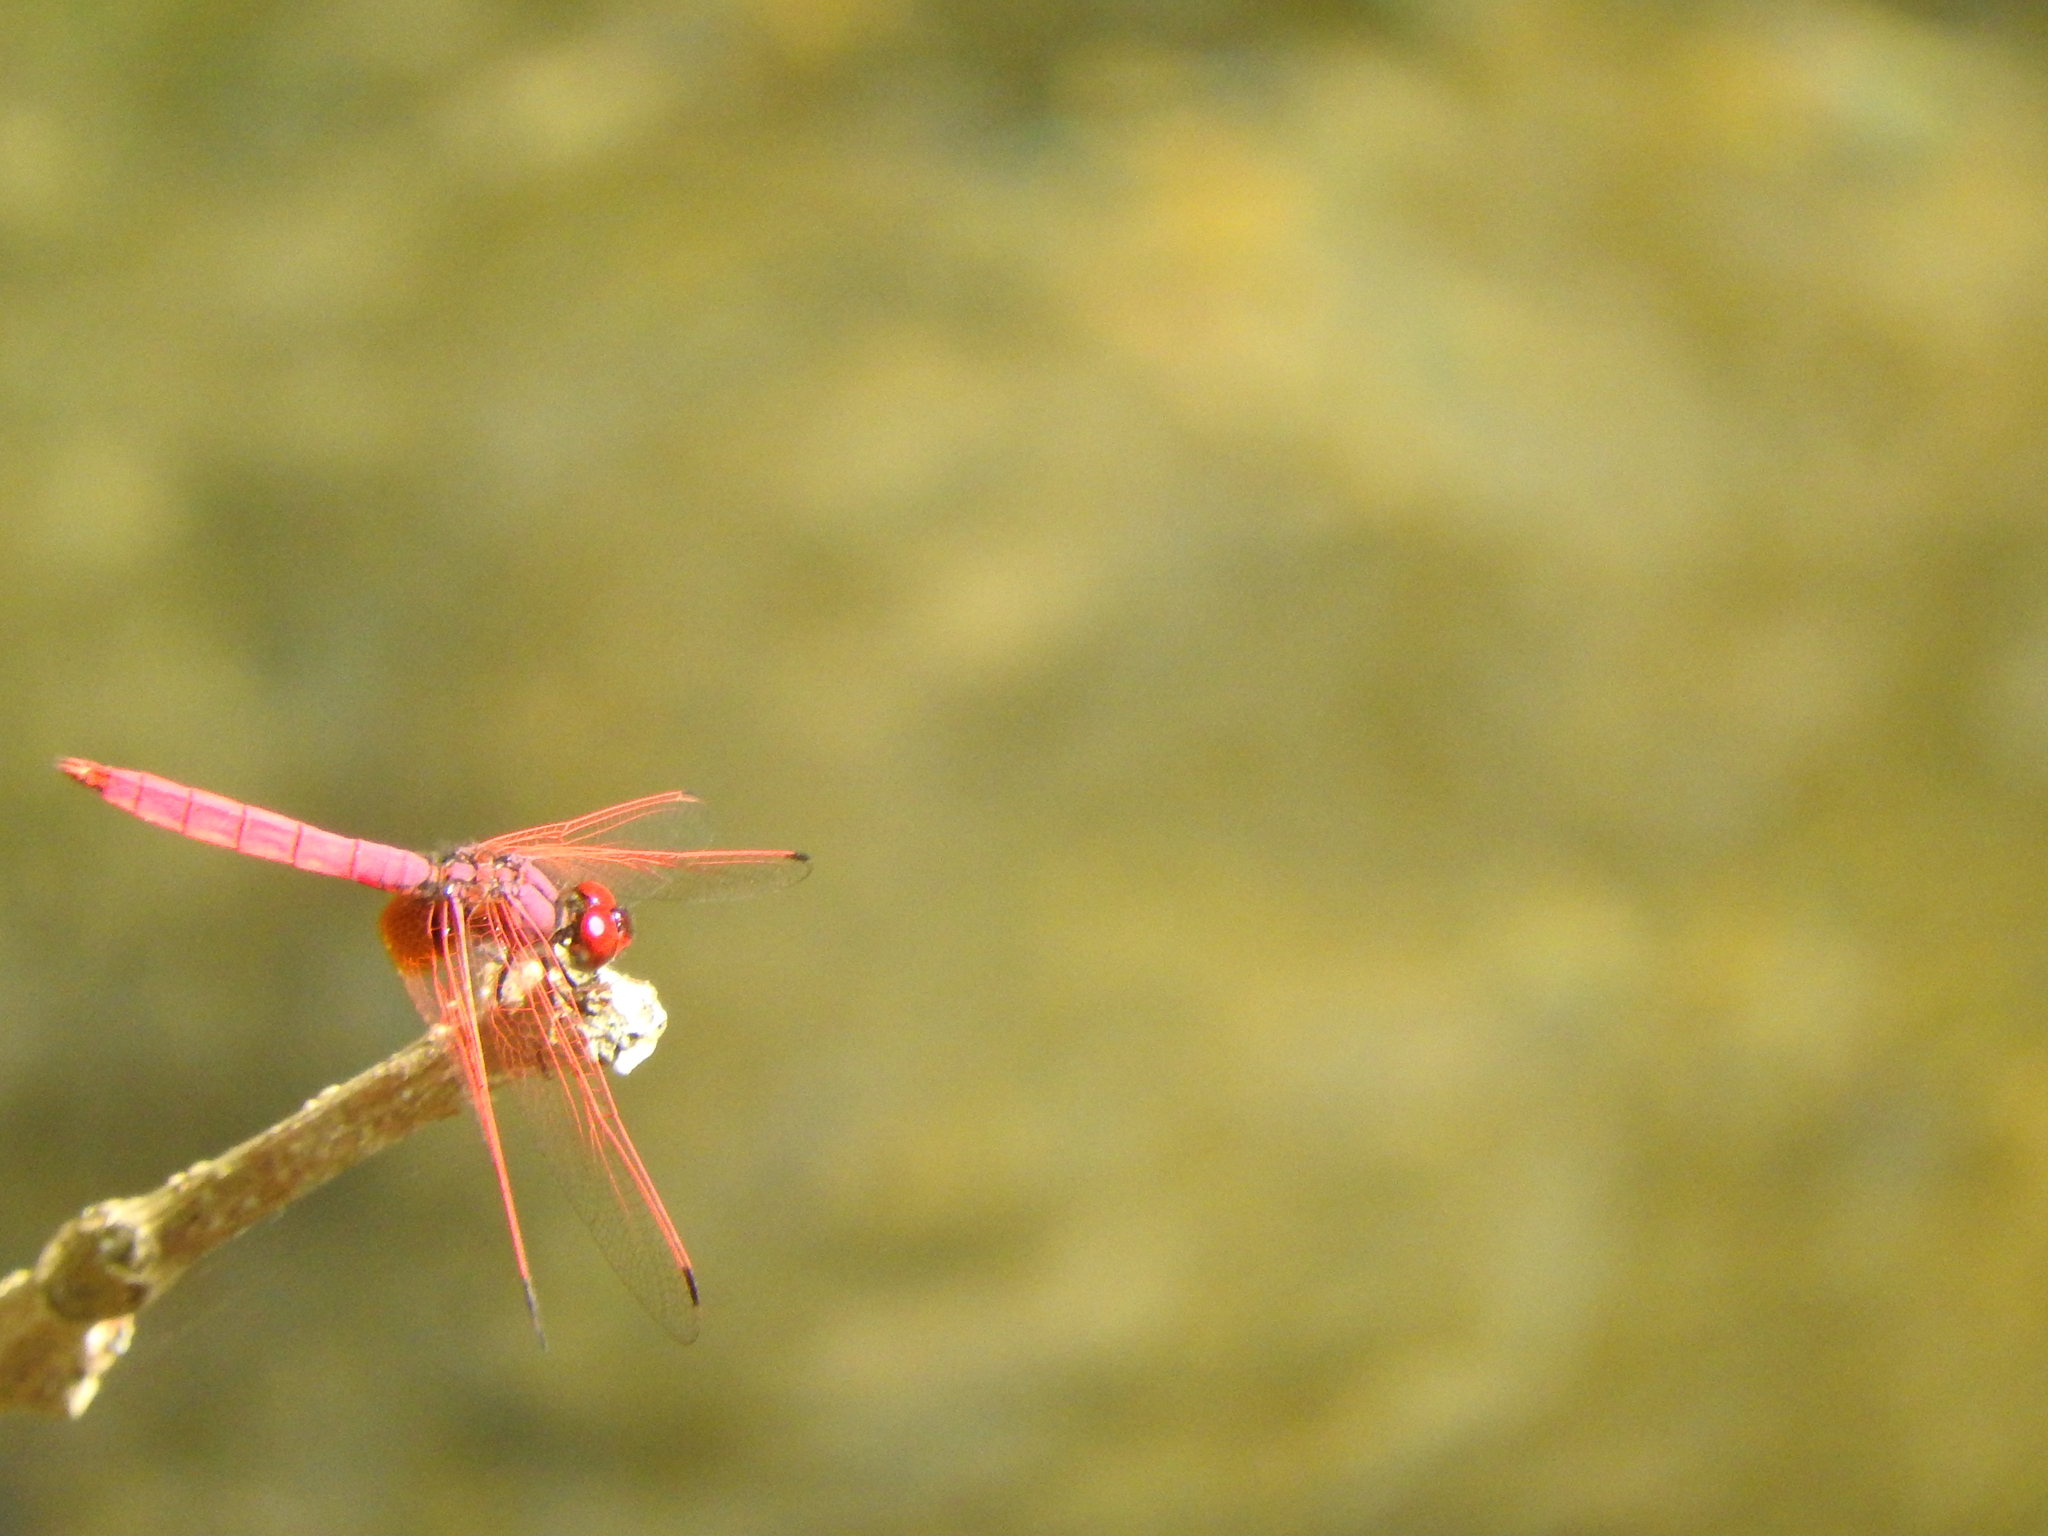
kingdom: Animalia
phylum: Arthropoda
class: Insecta
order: Odonata
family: Libellulidae
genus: Trithemis
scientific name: Trithemis aurora
